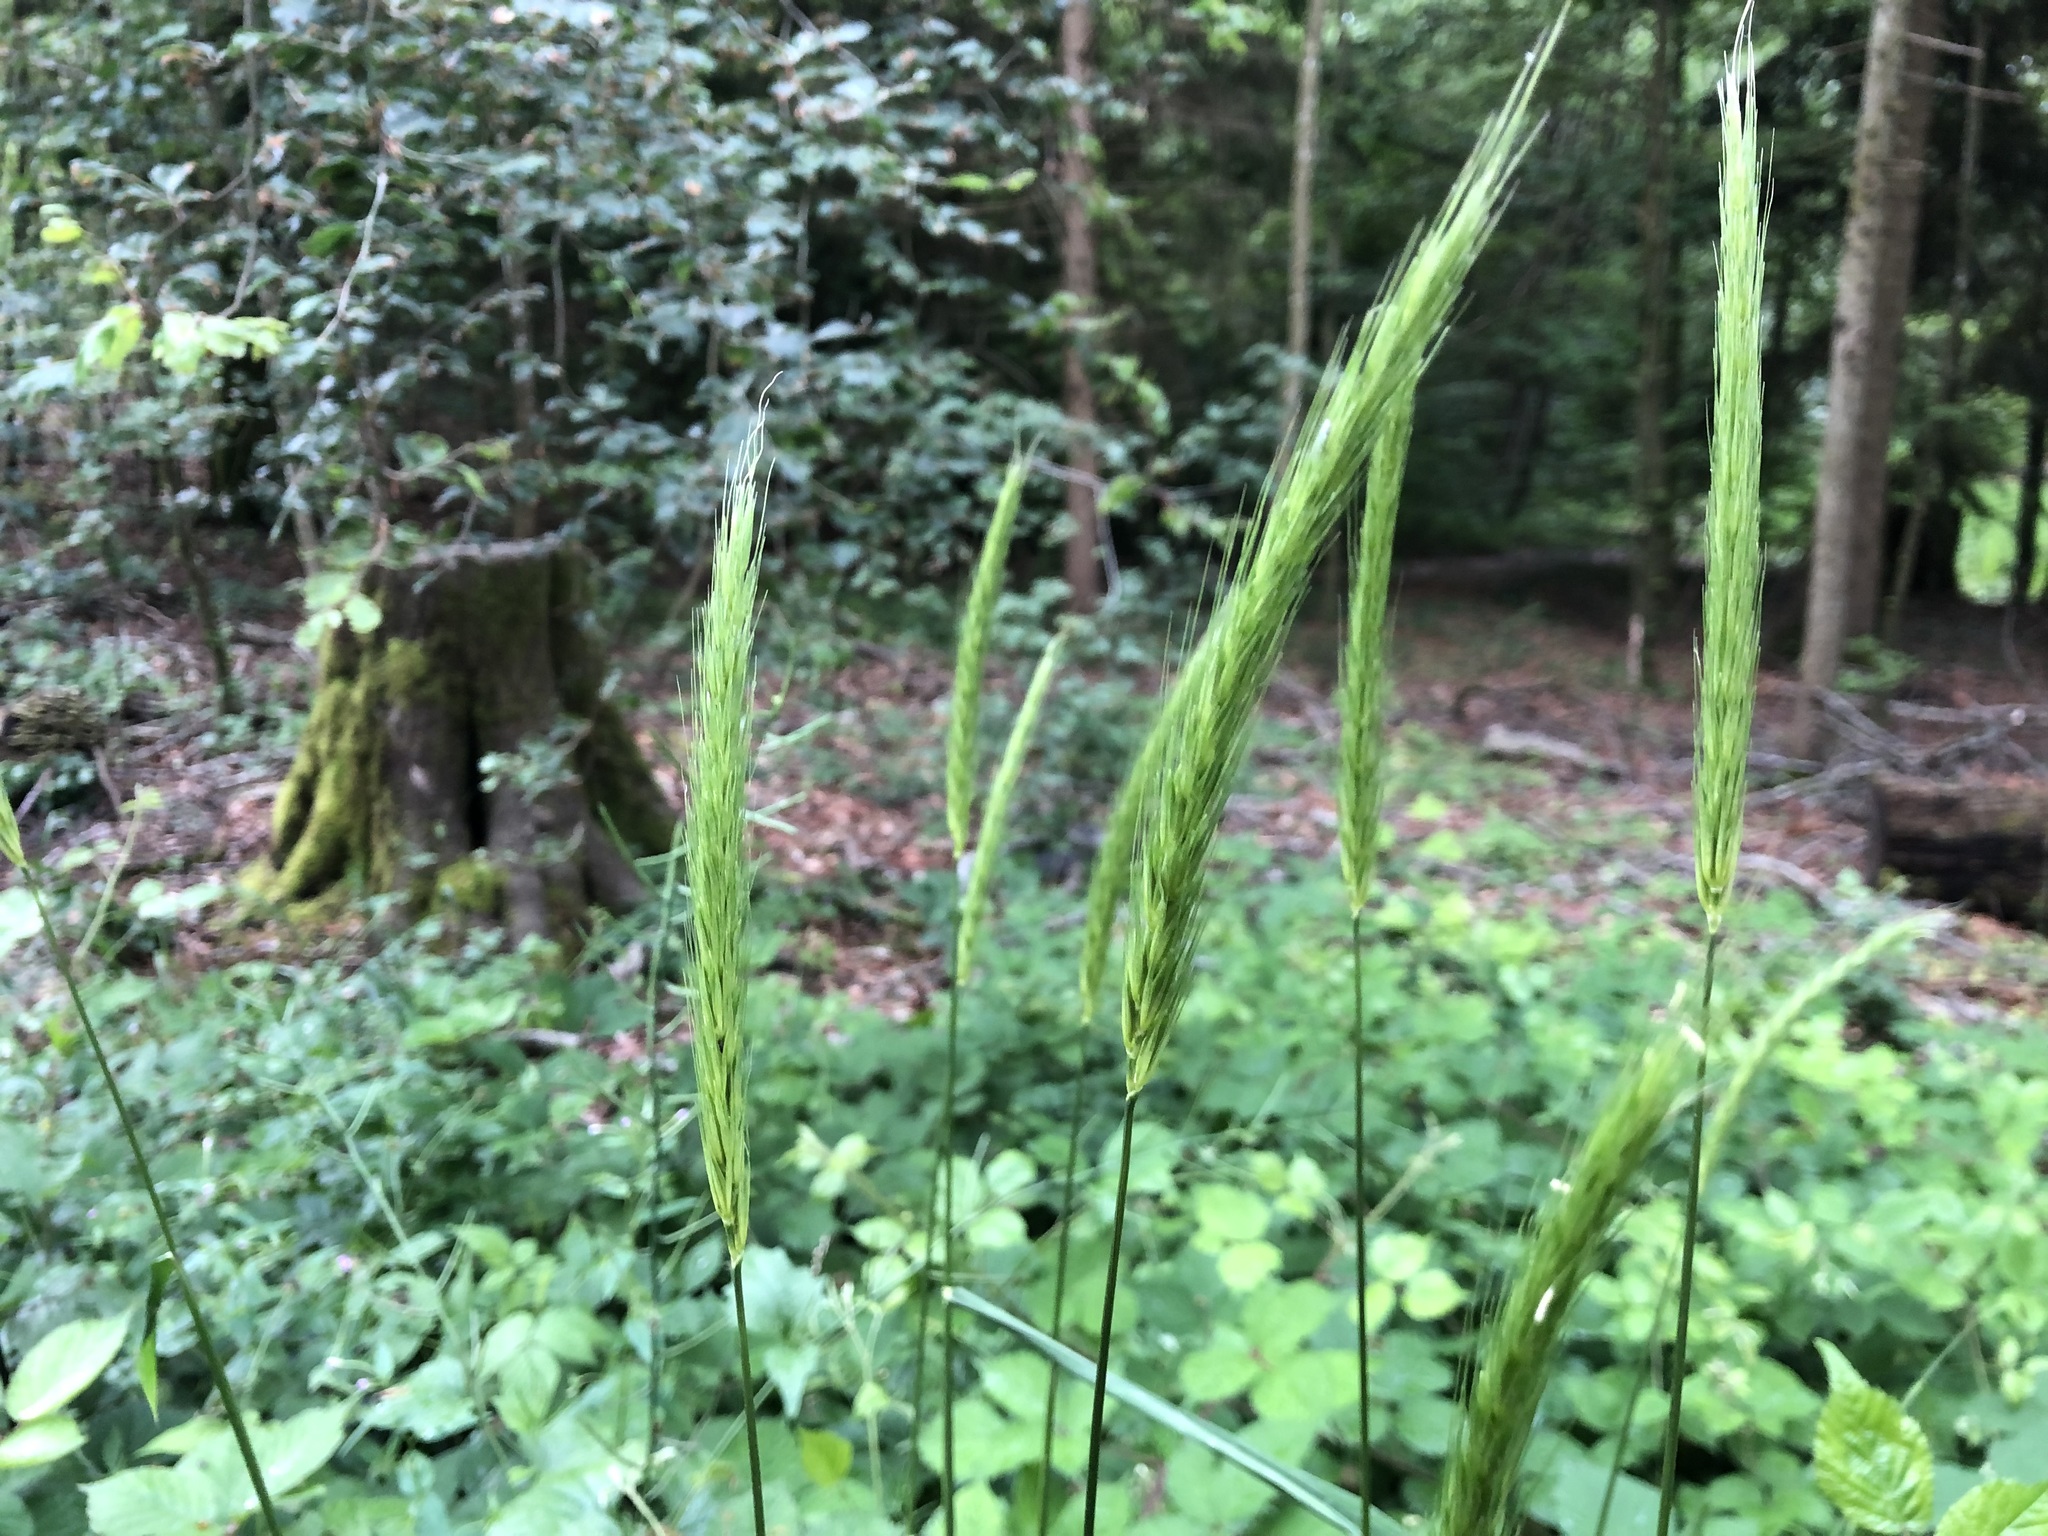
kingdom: Plantae
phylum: Tracheophyta
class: Liliopsida
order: Poales
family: Poaceae
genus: Hordelymus
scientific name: Hordelymus europaeus
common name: Wood-barley
